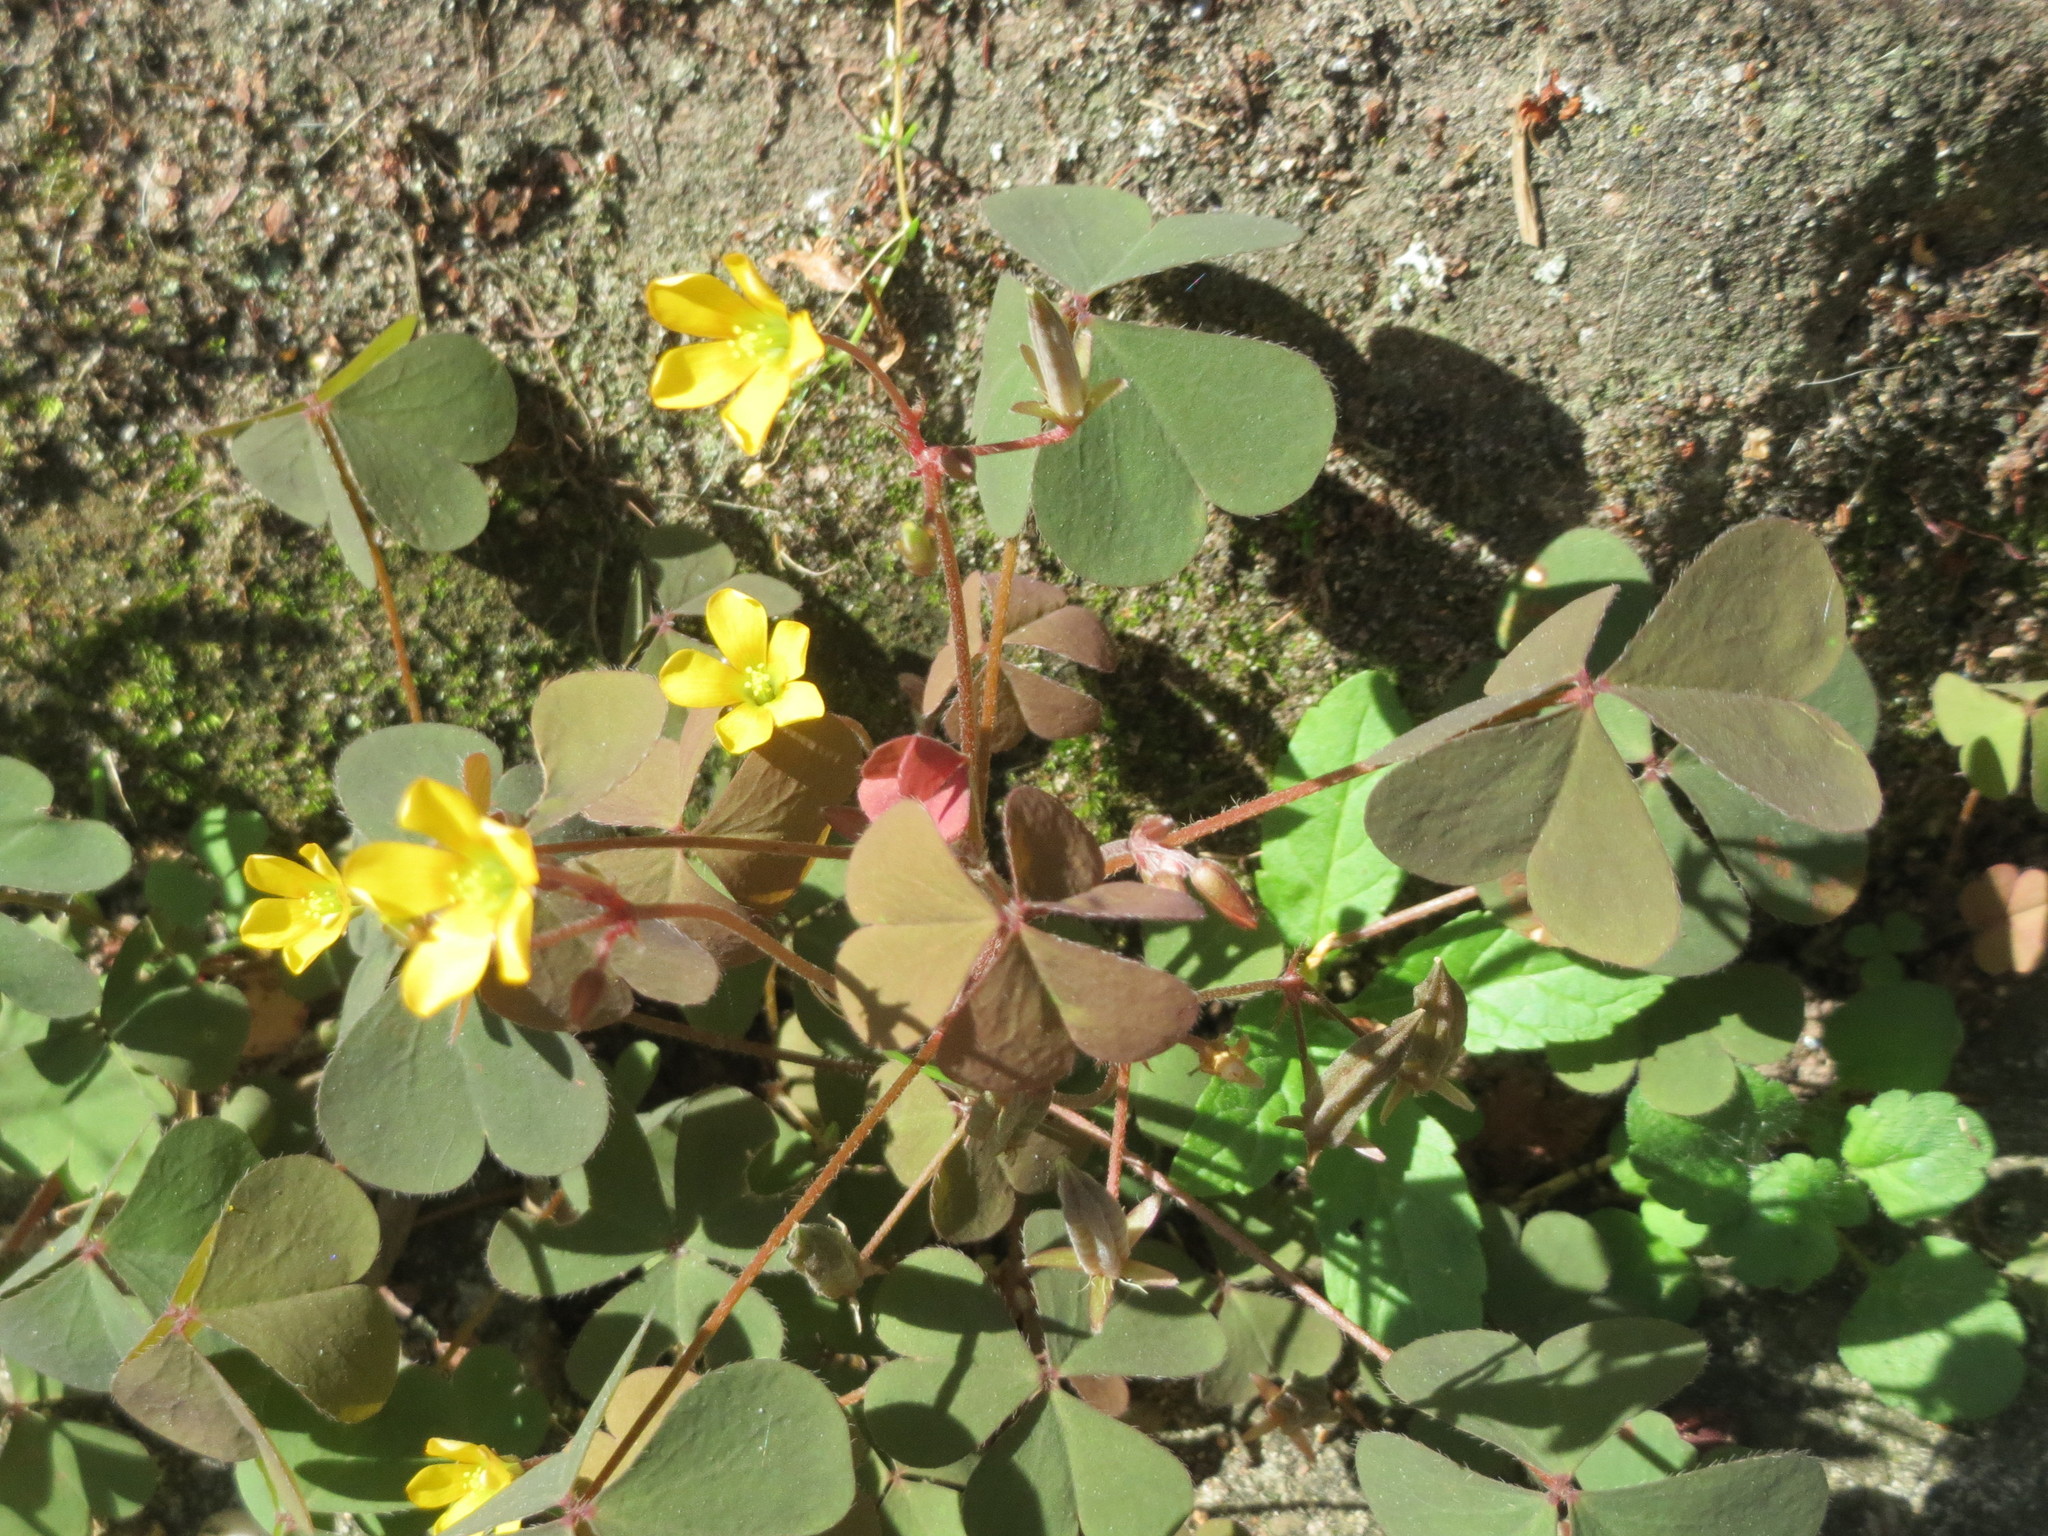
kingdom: Plantae
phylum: Tracheophyta
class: Magnoliopsida
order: Oxalidales
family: Oxalidaceae
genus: Oxalis
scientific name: Oxalis corniculata
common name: Procumbent yellow-sorrel
